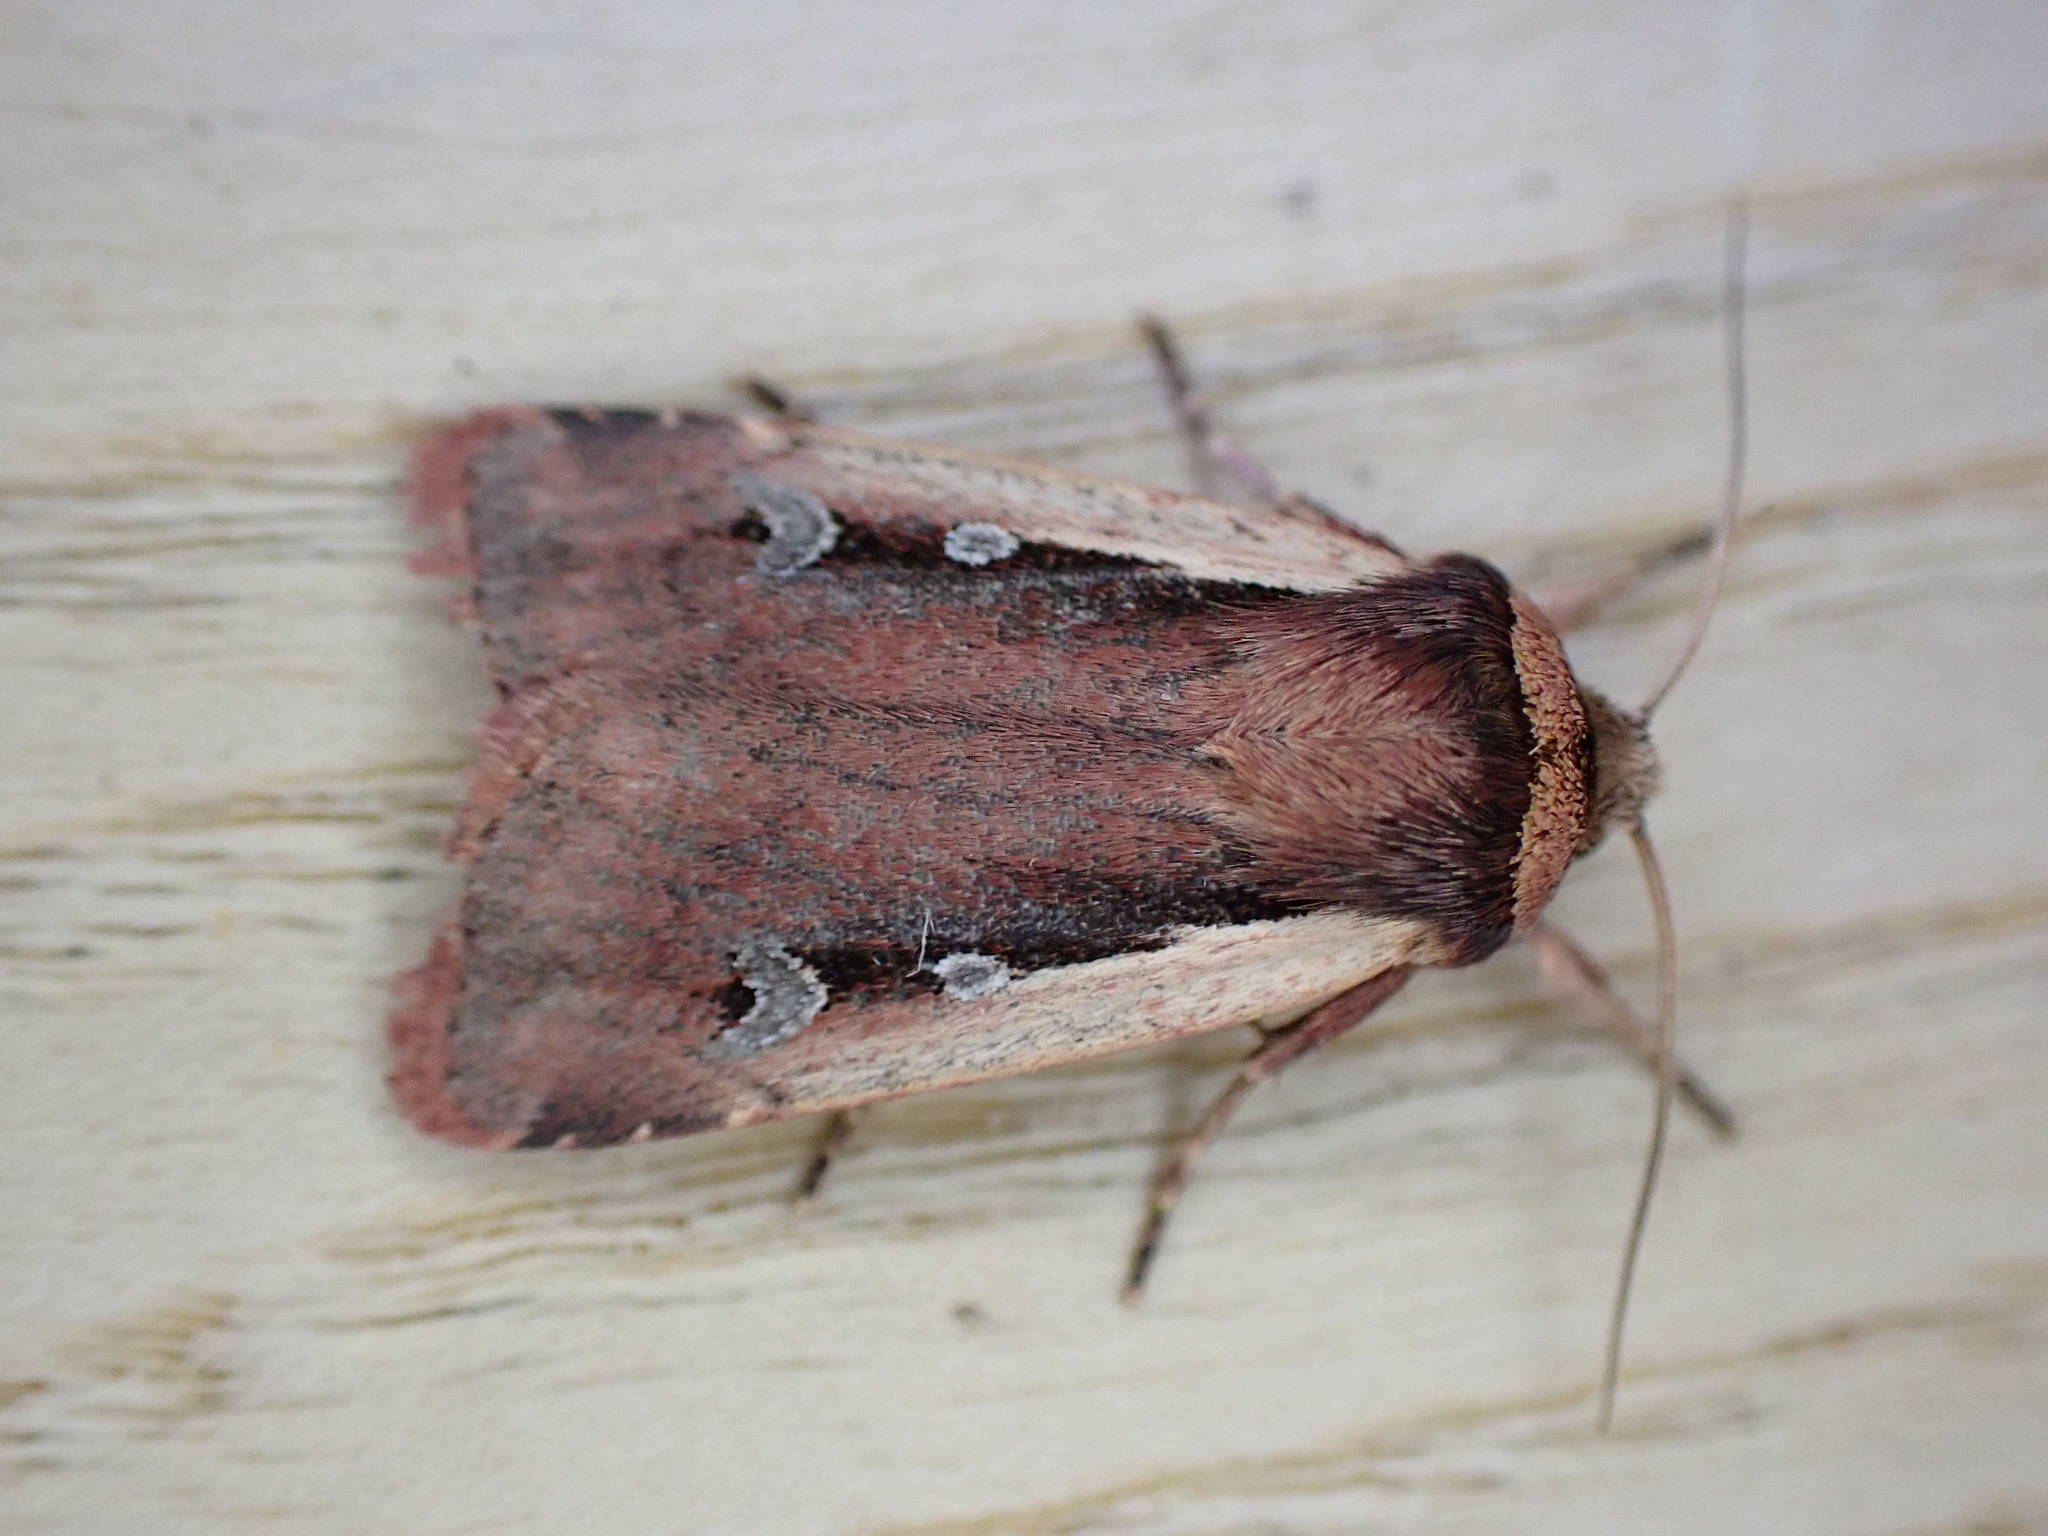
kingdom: Animalia
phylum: Arthropoda
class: Insecta
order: Lepidoptera
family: Noctuidae
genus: Ochropleura
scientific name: Ochropleura plecta
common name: Flame shoulder
